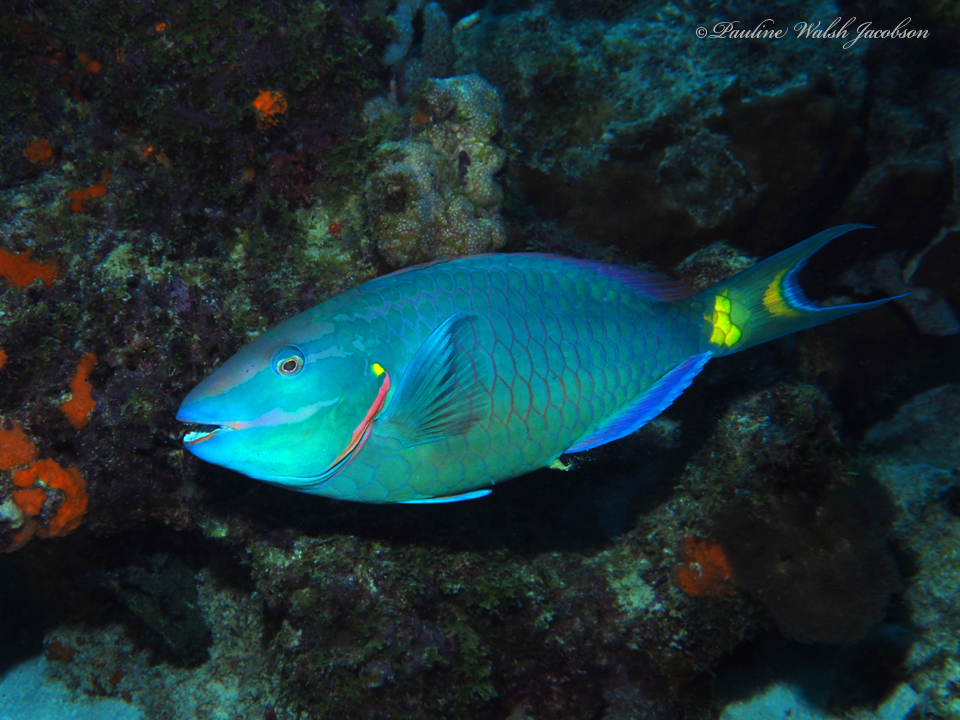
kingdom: Animalia
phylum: Chordata
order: Perciformes
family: Scaridae
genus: Sparisoma
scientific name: Sparisoma viride
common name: Stoplight parrotfish
